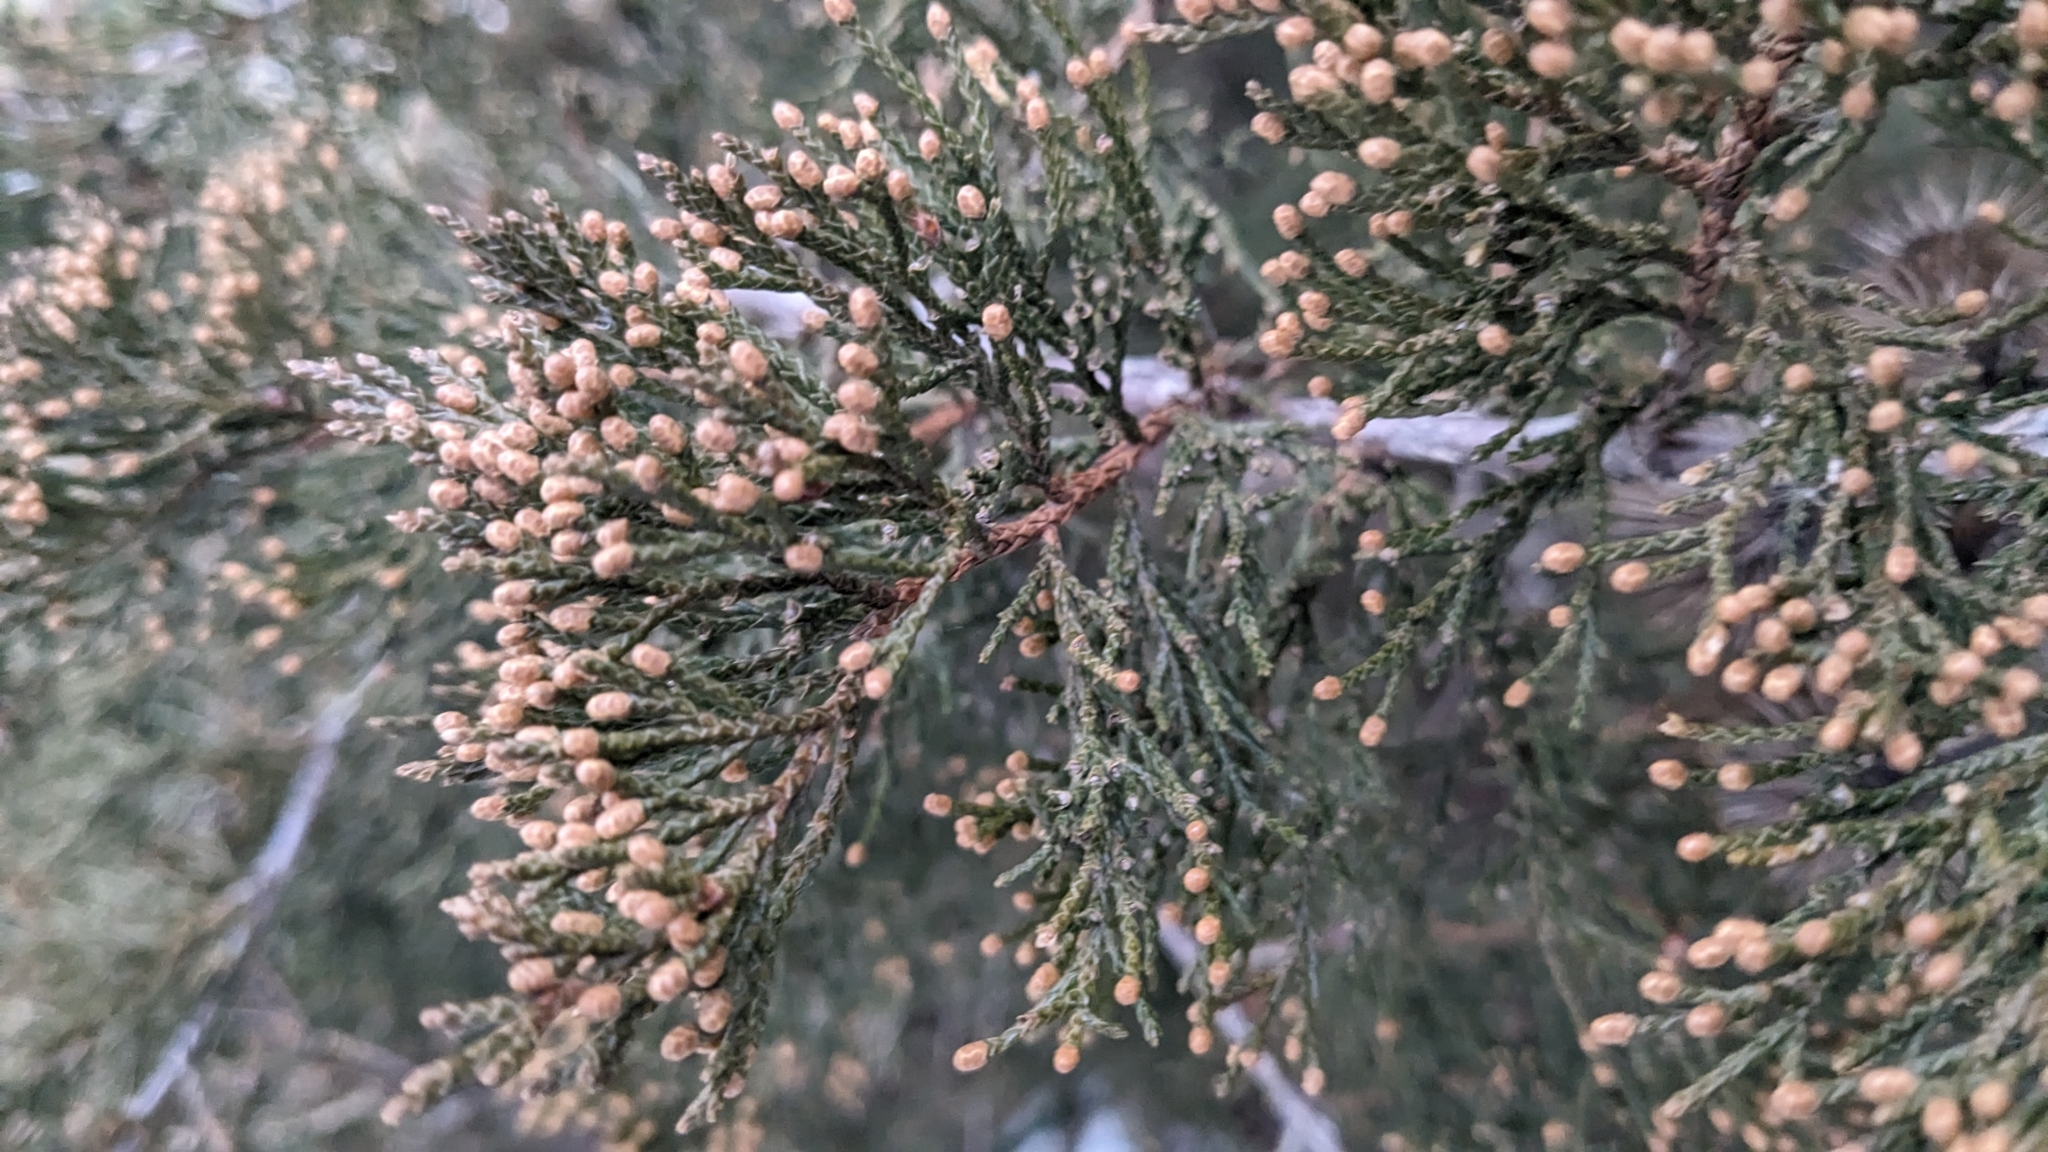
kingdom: Plantae
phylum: Tracheophyta
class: Pinopsida
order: Pinales
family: Cupressaceae
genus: Juniperus
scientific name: Juniperus virginiana
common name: Red juniper
